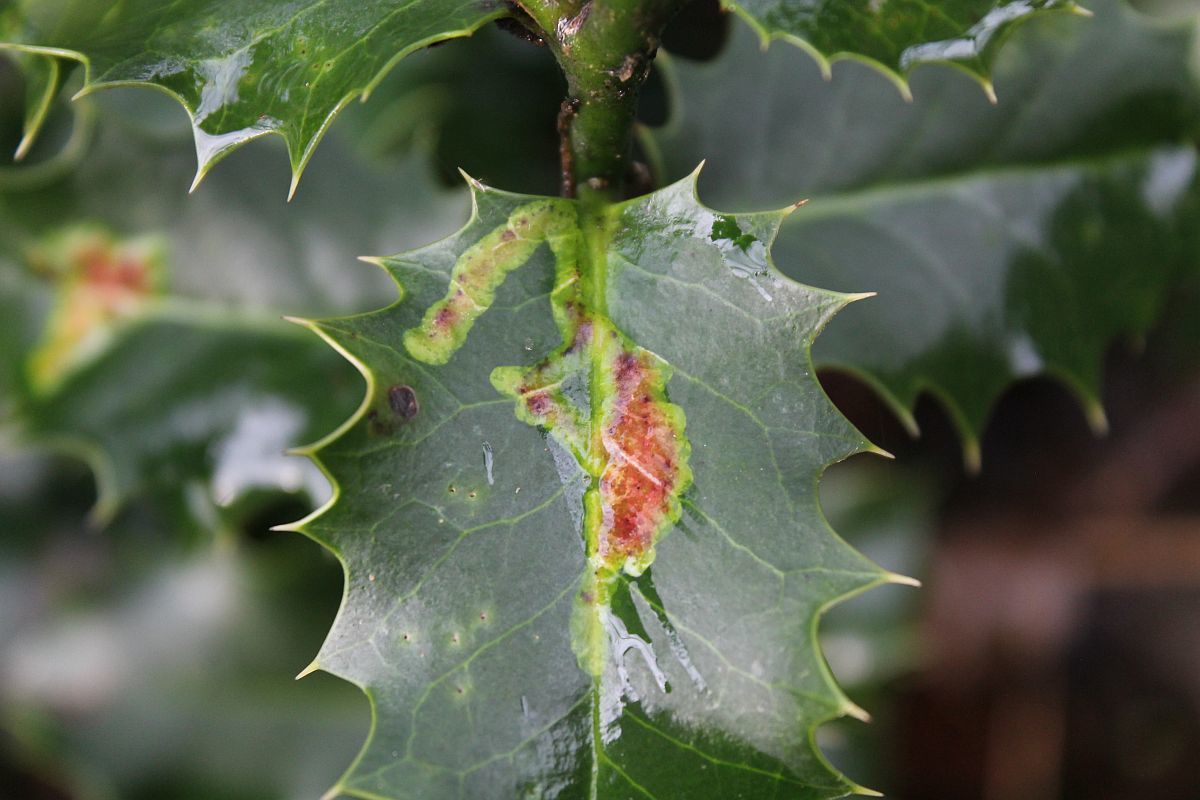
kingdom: Animalia
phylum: Arthropoda
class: Insecta
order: Diptera
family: Agromyzidae
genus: Phytomyza
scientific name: Phytomyza ilicis
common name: Holly leafminer
